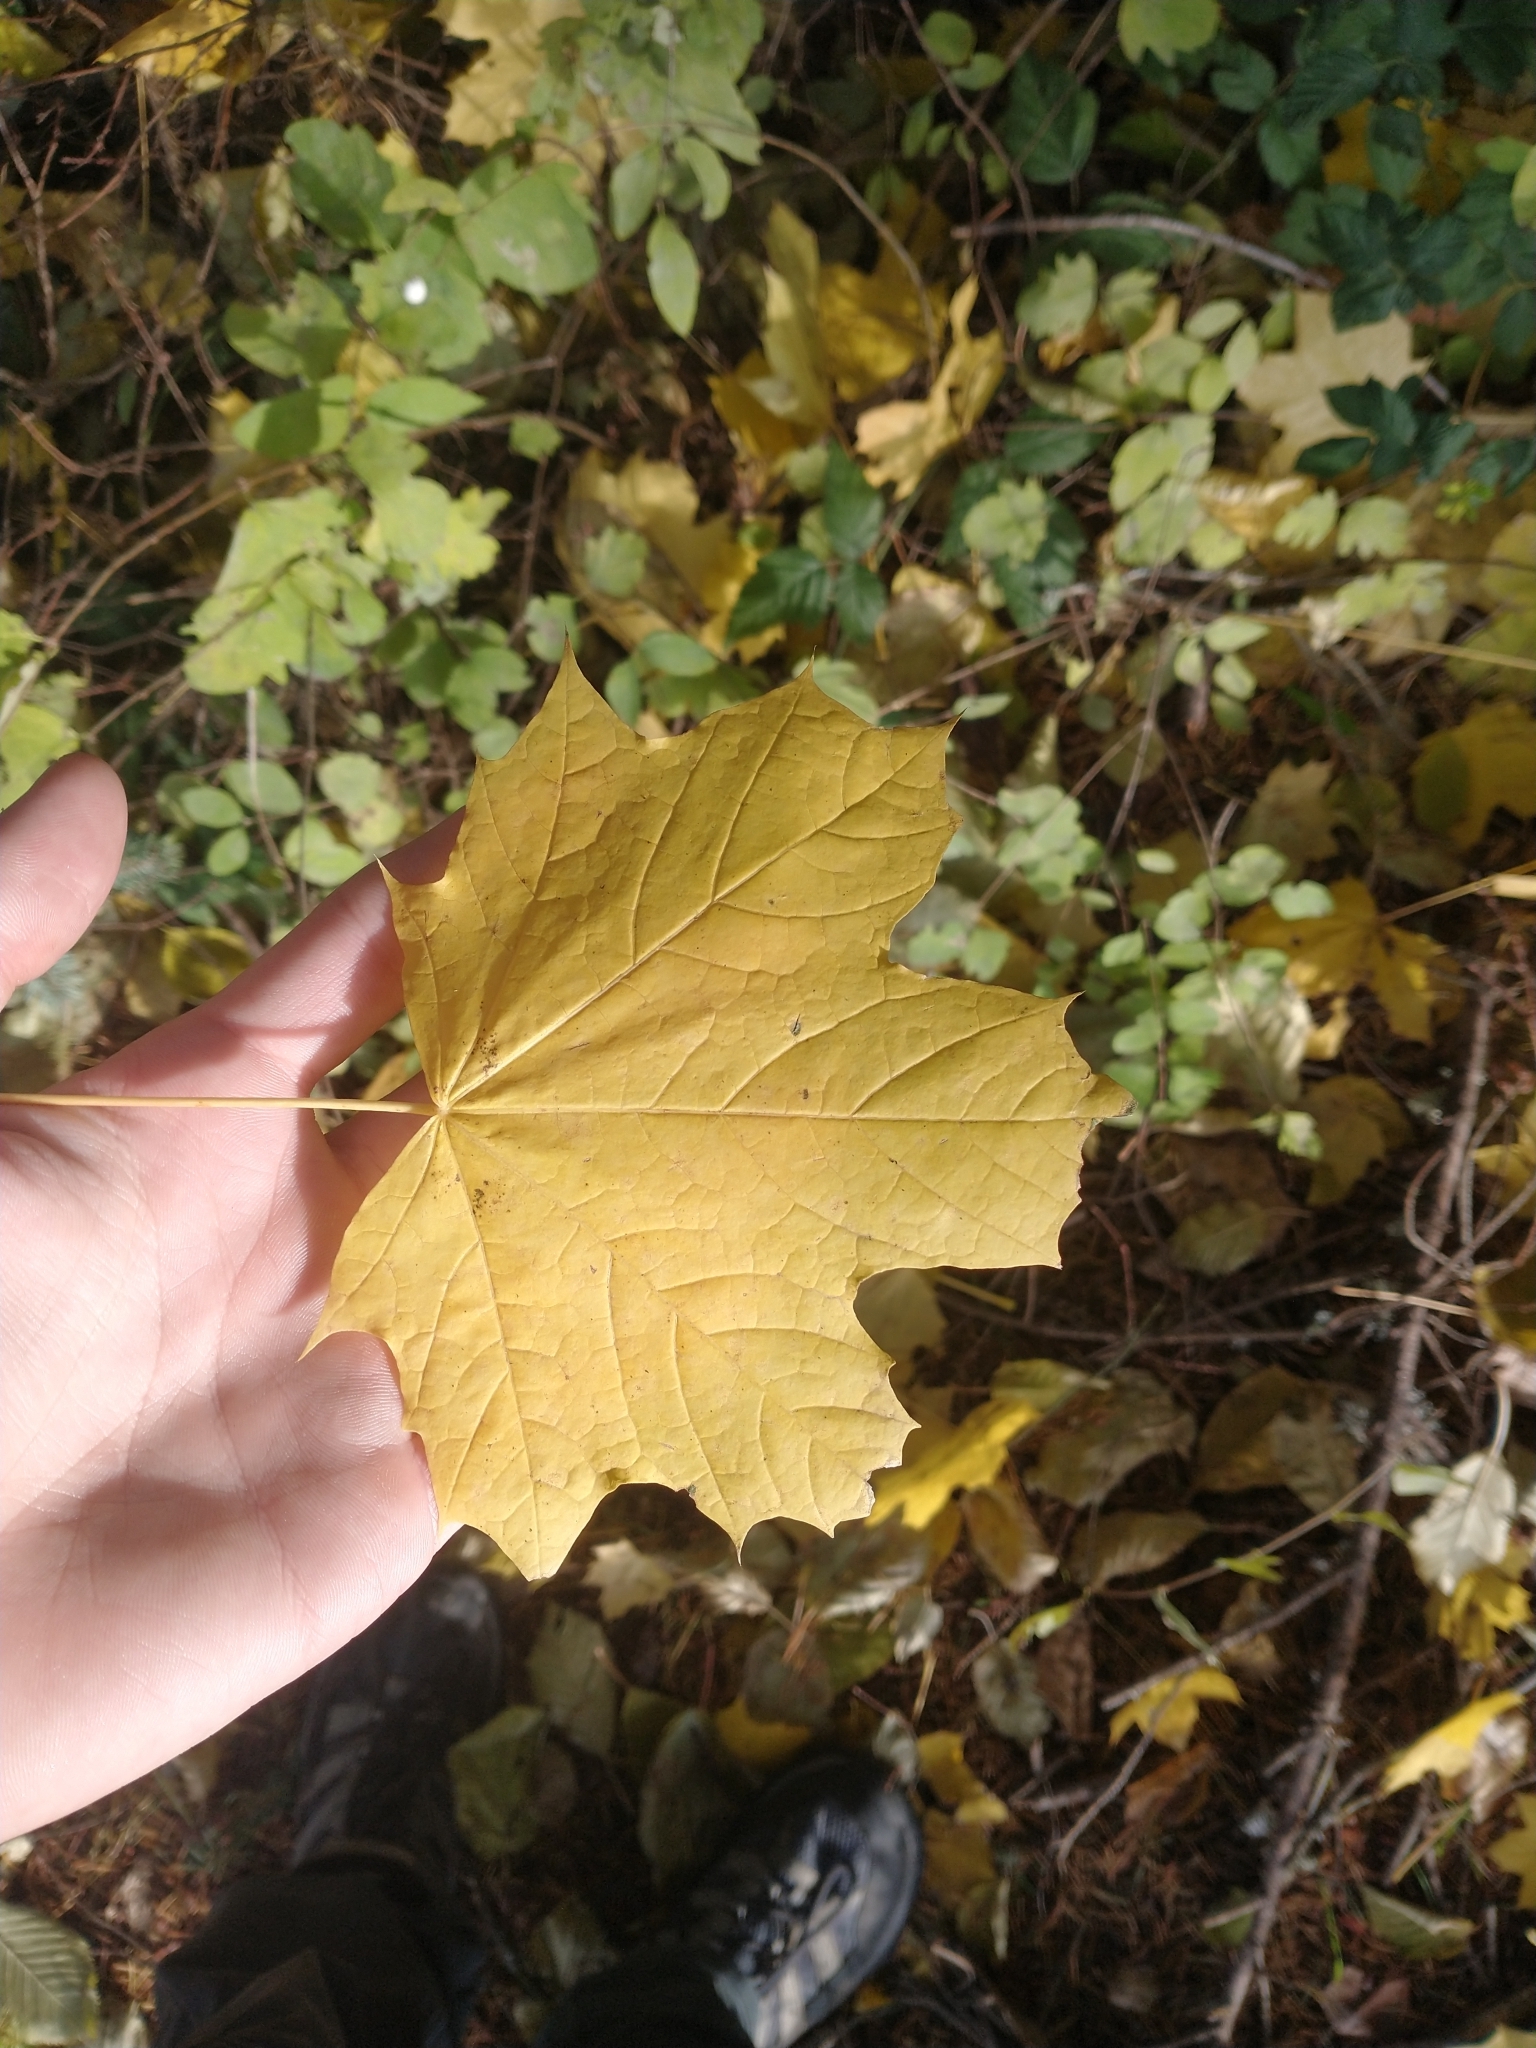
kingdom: Plantae
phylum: Tracheophyta
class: Magnoliopsida
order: Sapindales
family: Sapindaceae
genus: Acer
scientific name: Acer platanoides
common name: Norway maple
